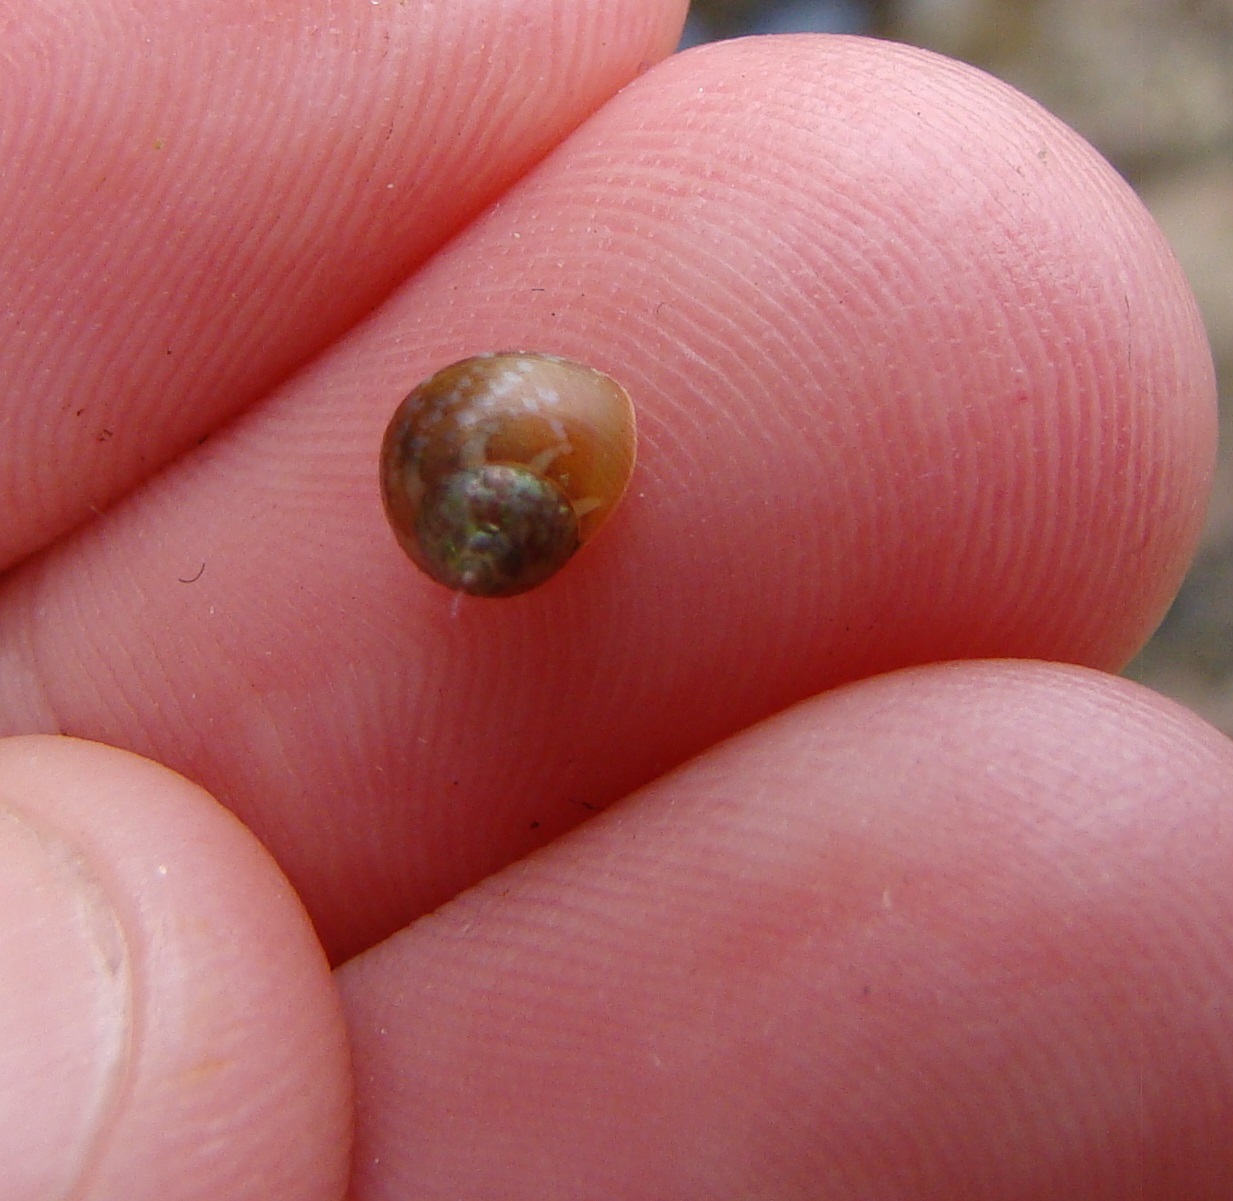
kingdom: Animalia
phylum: Mollusca
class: Gastropoda
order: Trochida
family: Trochidae
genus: Cantharidus
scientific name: Cantharidus dilatatus
